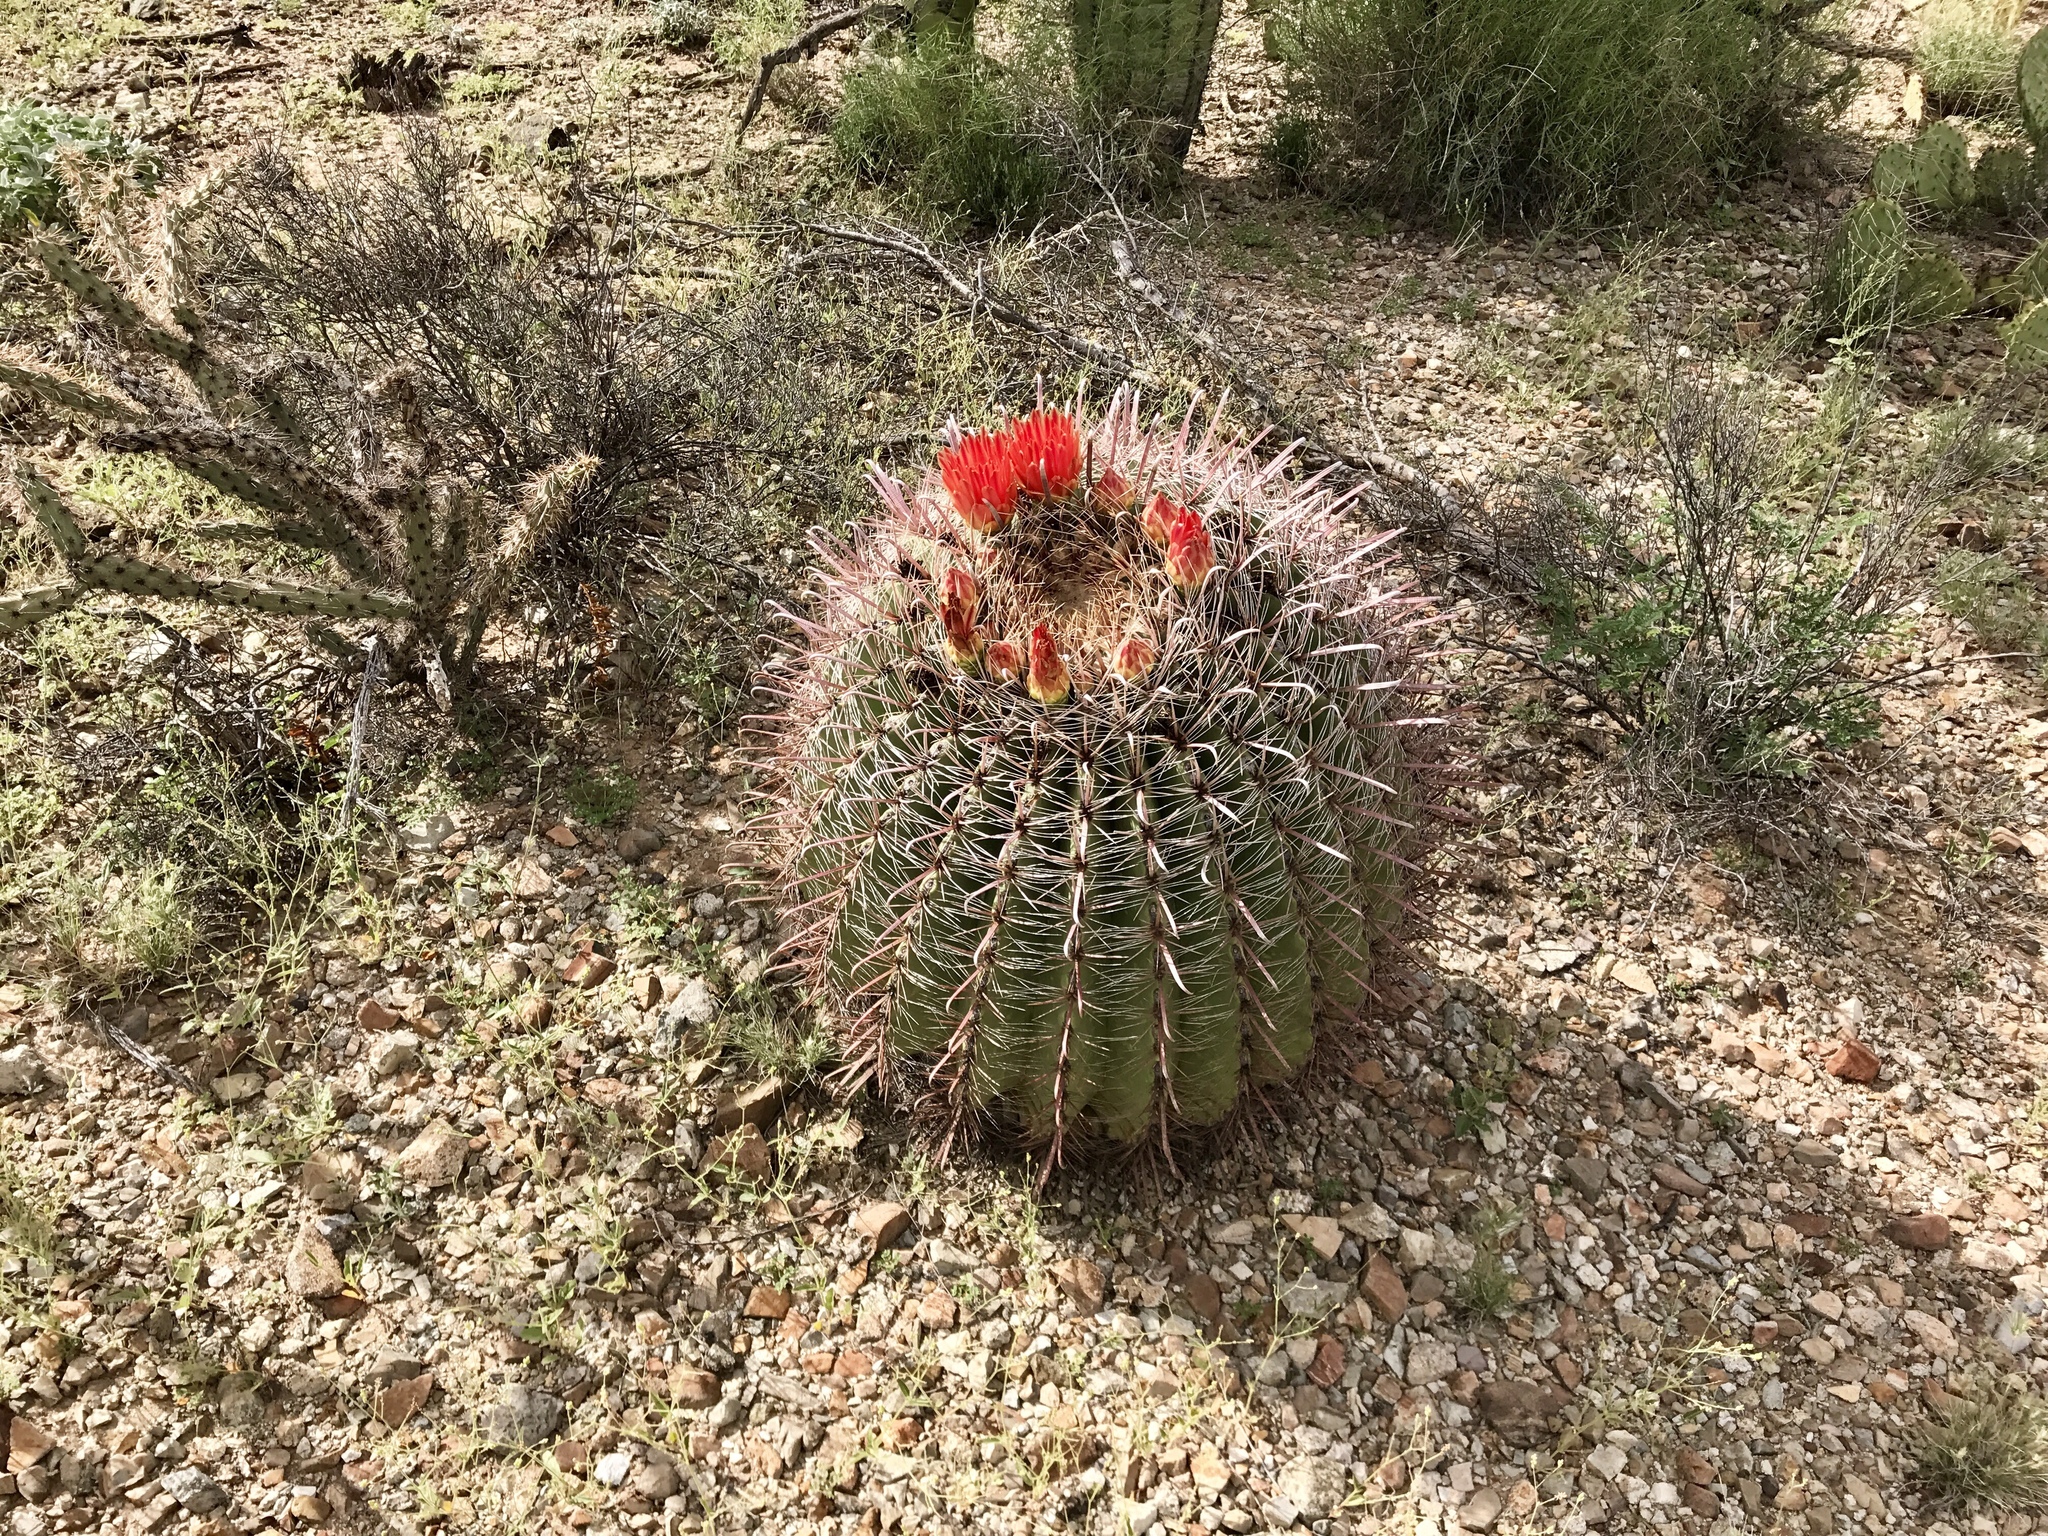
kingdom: Plantae
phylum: Tracheophyta
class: Magnoliopsida
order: Caryophyllales
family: Cactaceae
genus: Ferocactus
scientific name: Ferocactus wislizeni
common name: Candy barrel cactus
